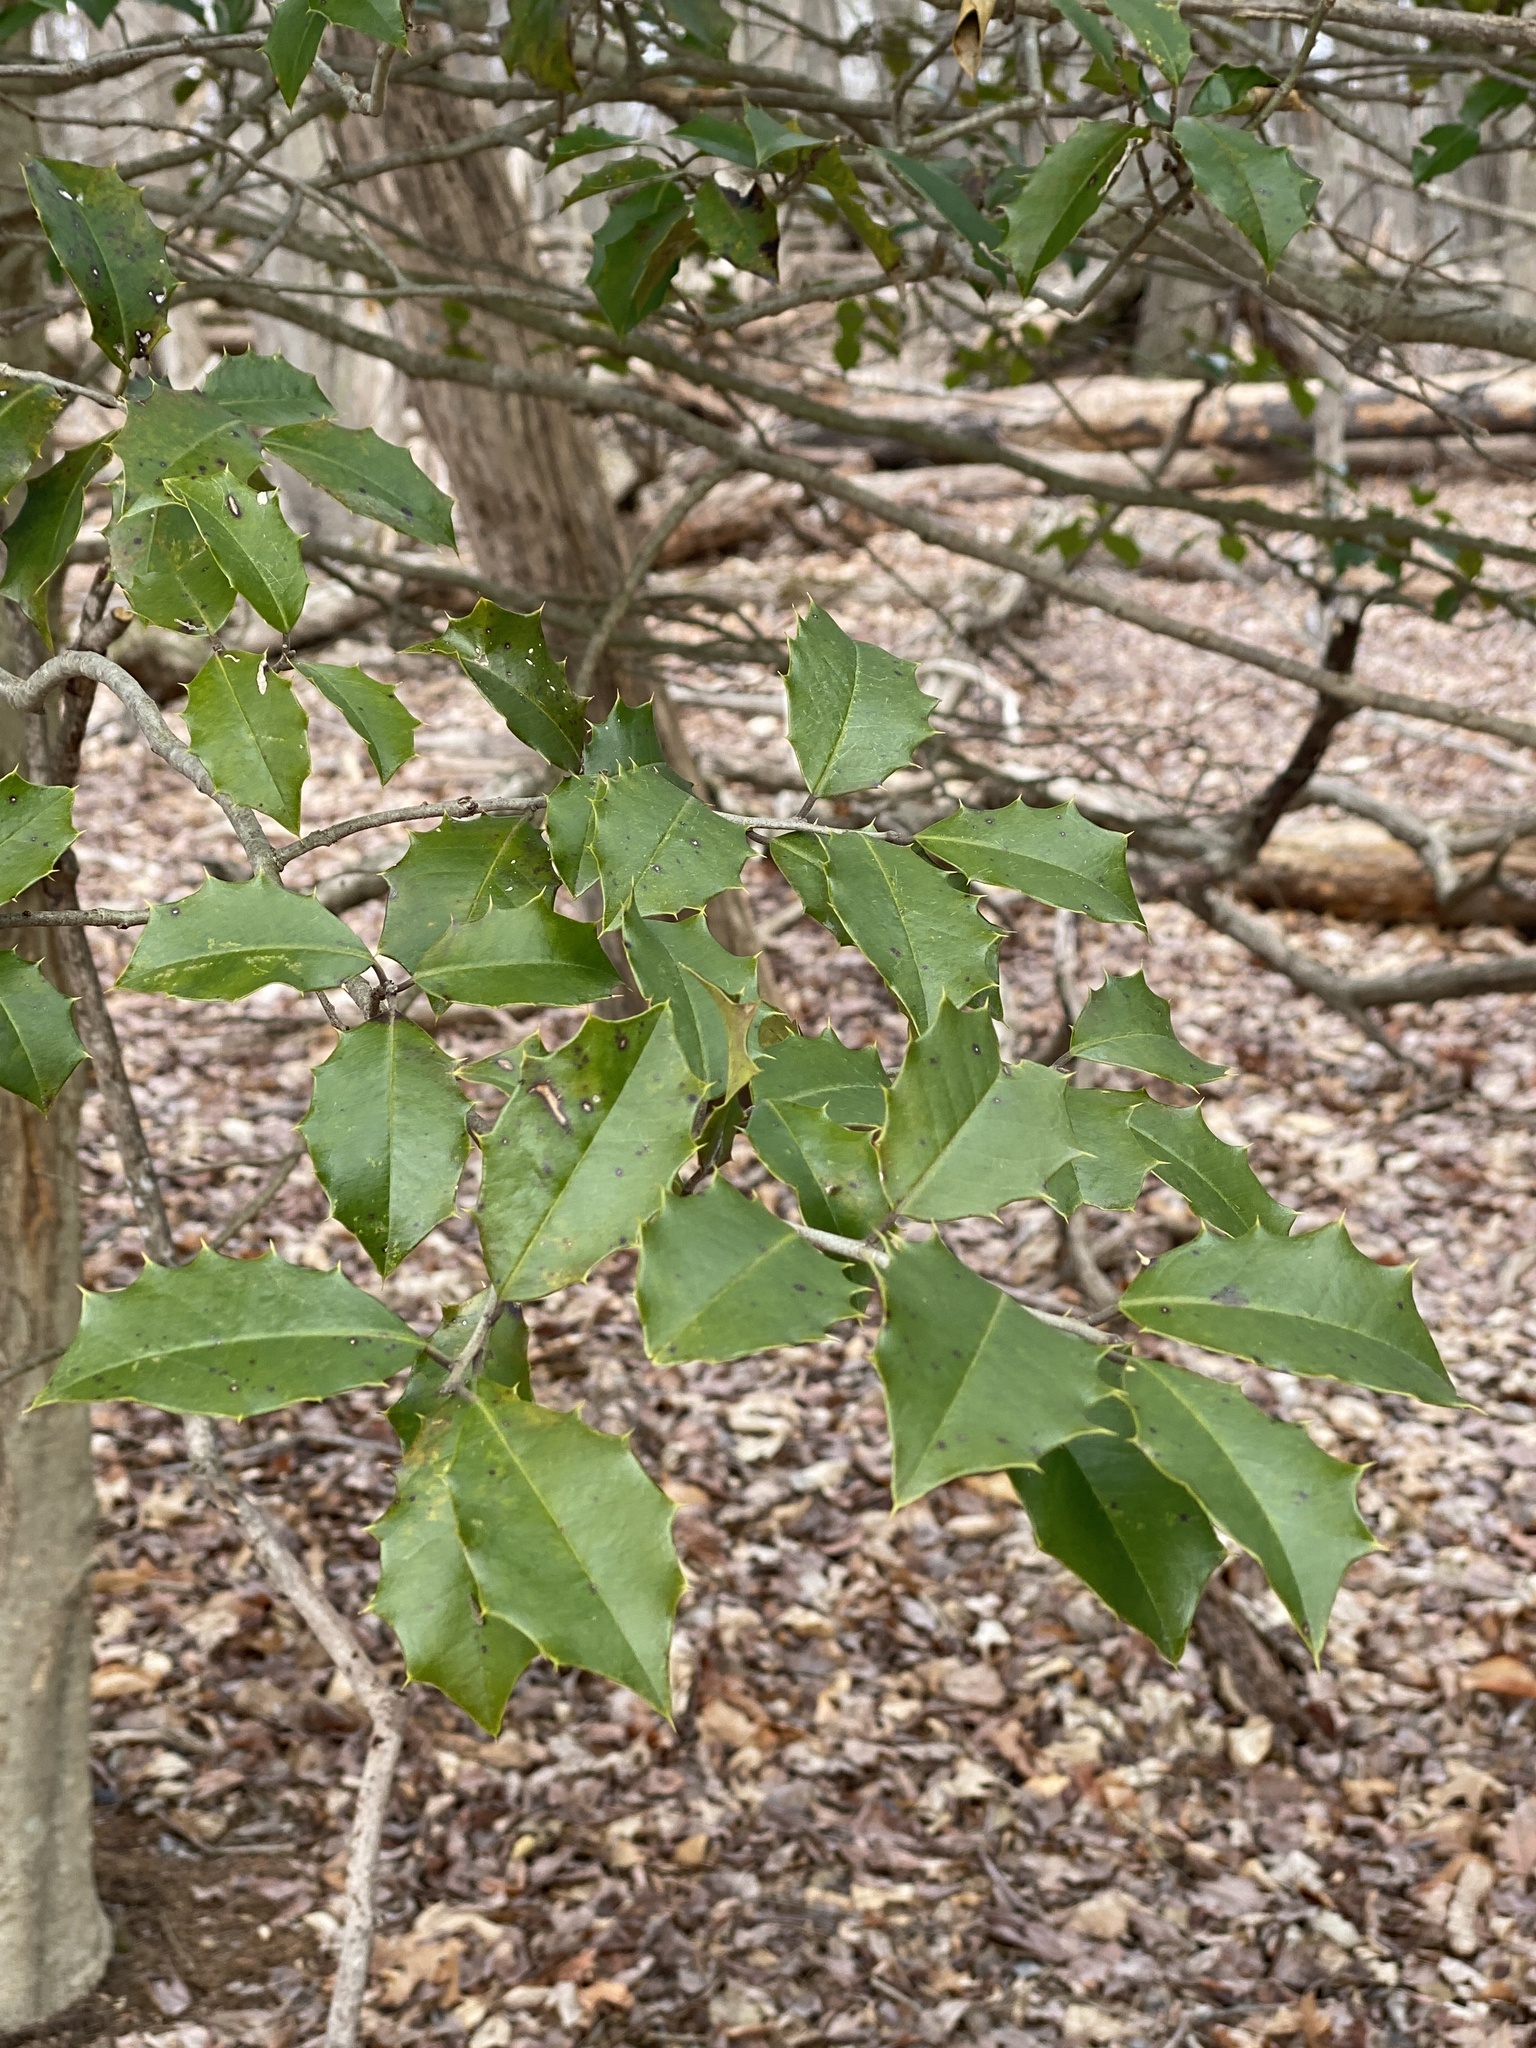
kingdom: Plantae
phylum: Tracheophyta
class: Magnoliopsida
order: Aquifoliales
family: Aquifoliaceae
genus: Ilex
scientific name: Ilex opaca
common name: American holly
